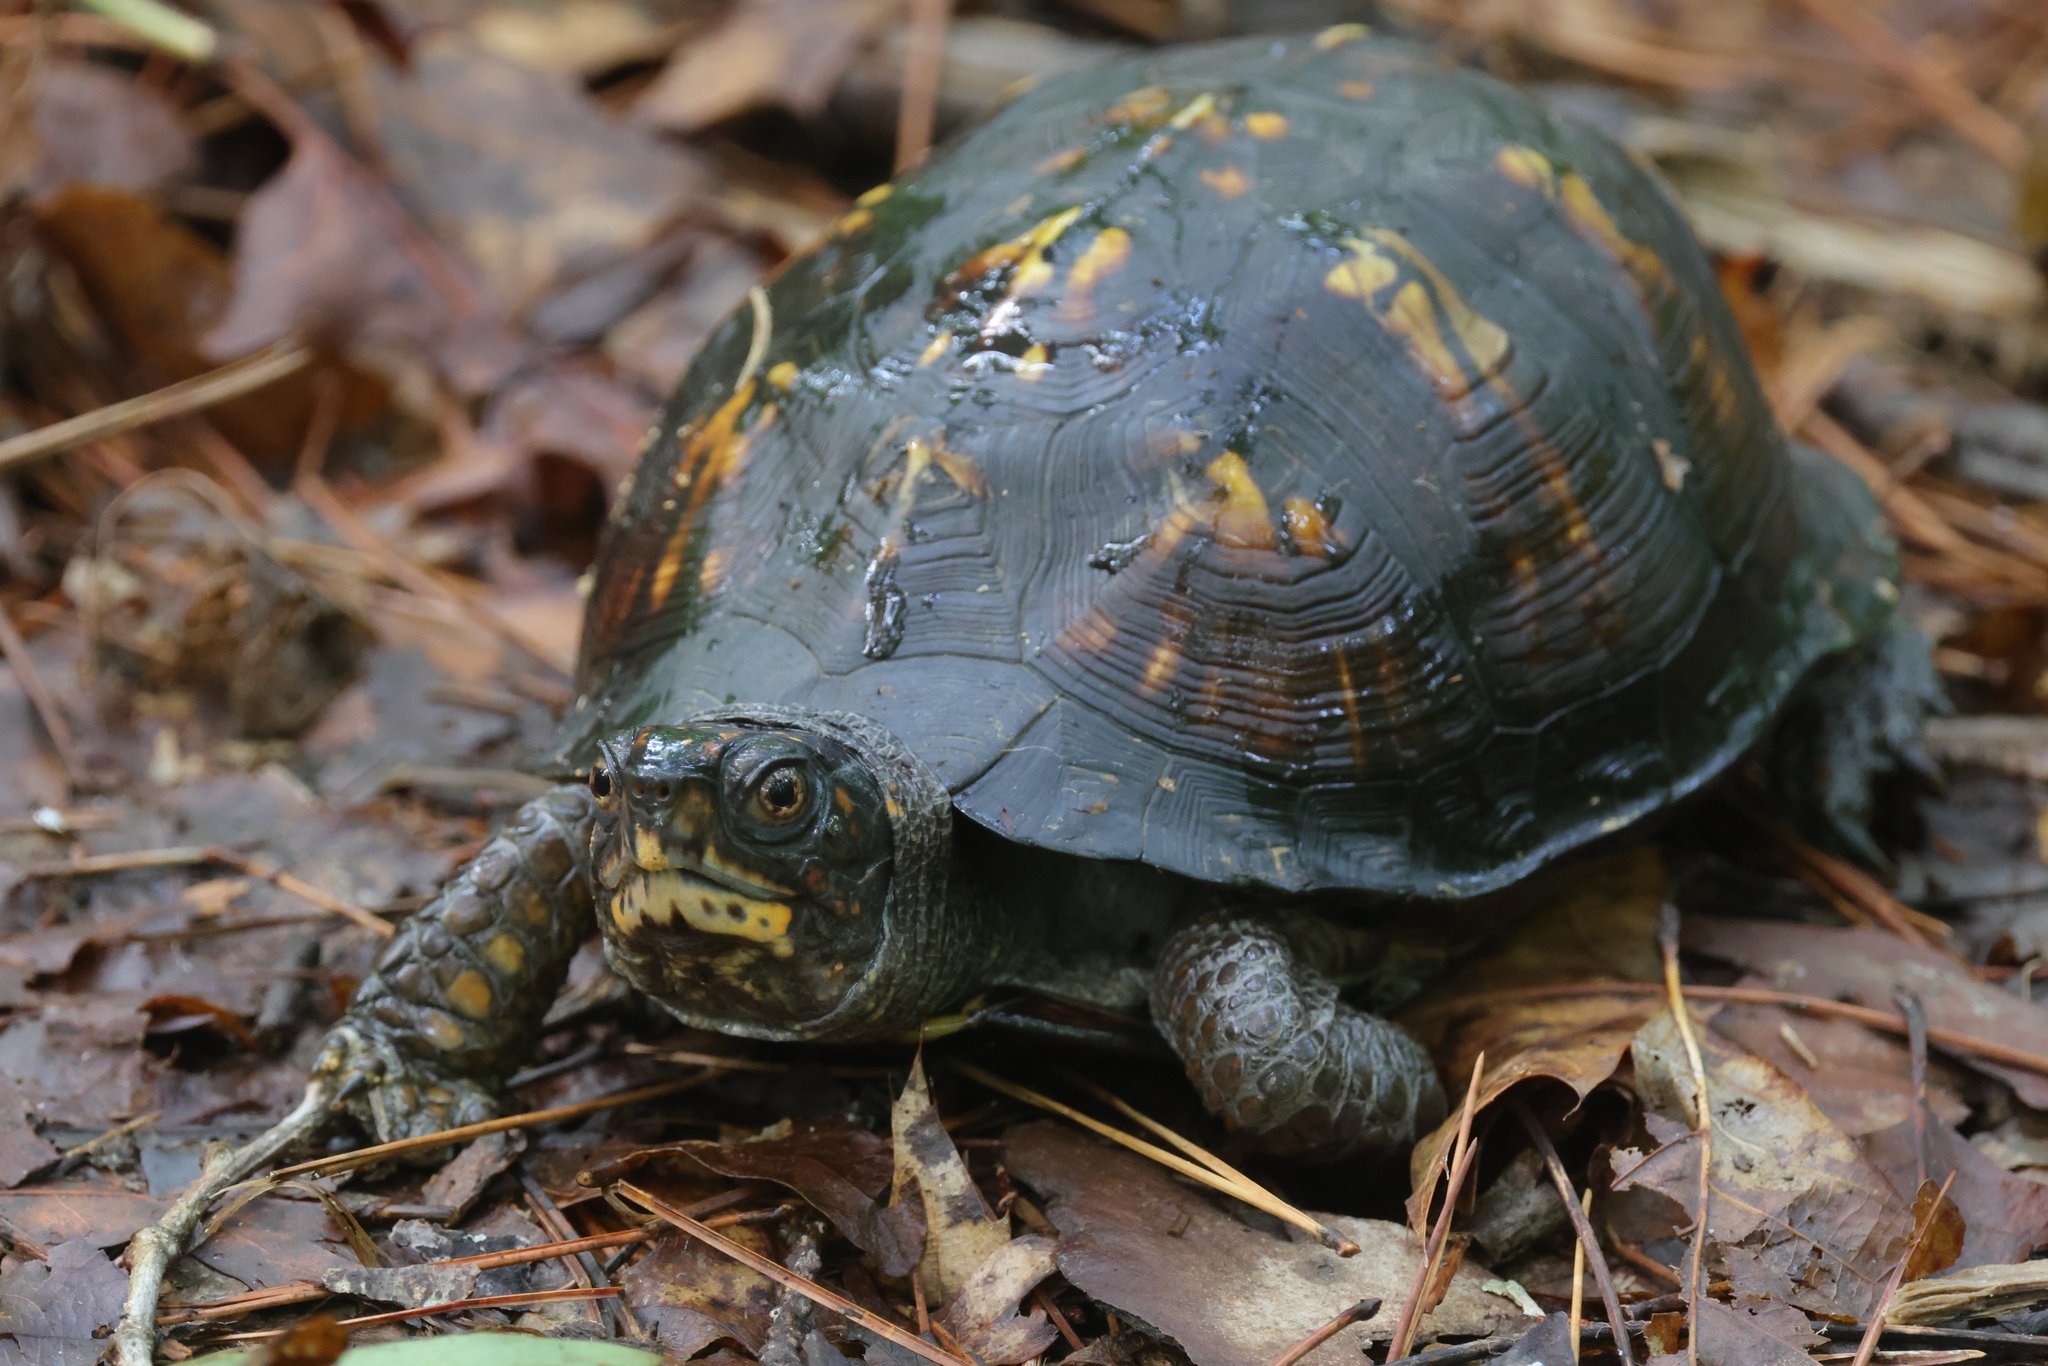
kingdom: Animalia
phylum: Chordata
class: Testudines
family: Emydidae
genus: Terrapene
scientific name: Terrapene carolina
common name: Common box turtle
